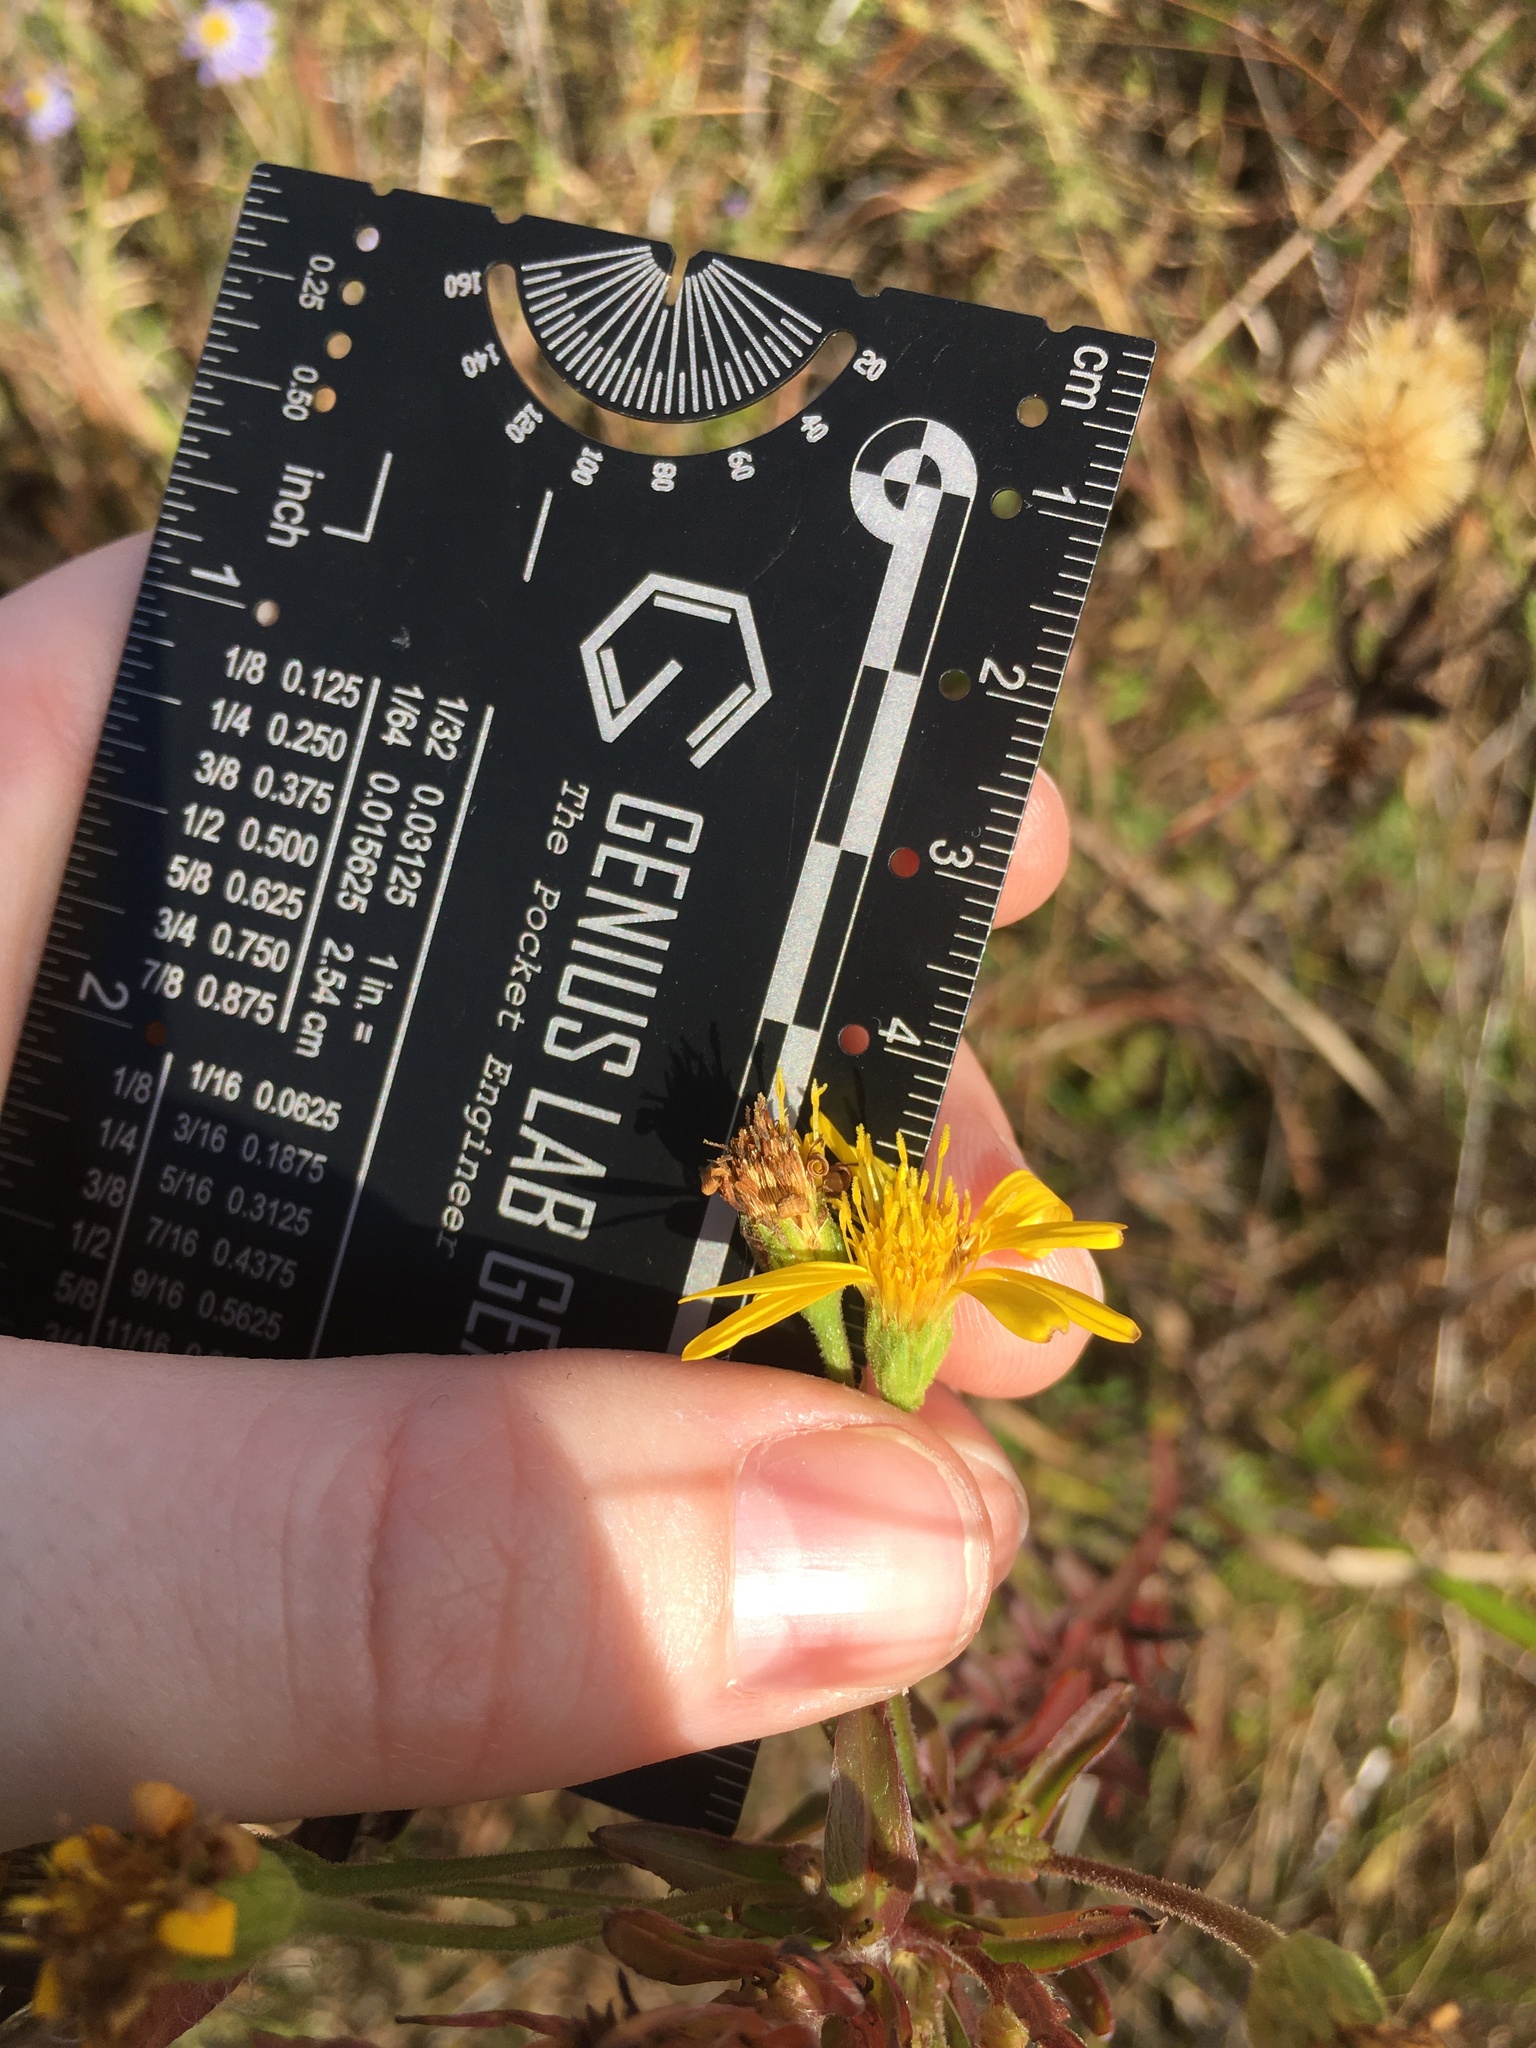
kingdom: Plantae
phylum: Tracheophyta
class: Magnoliopsida
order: Asterales
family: Asteraceae
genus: Chrysopsis
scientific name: Chrysopsis mariana
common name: Maryland golden-aster
